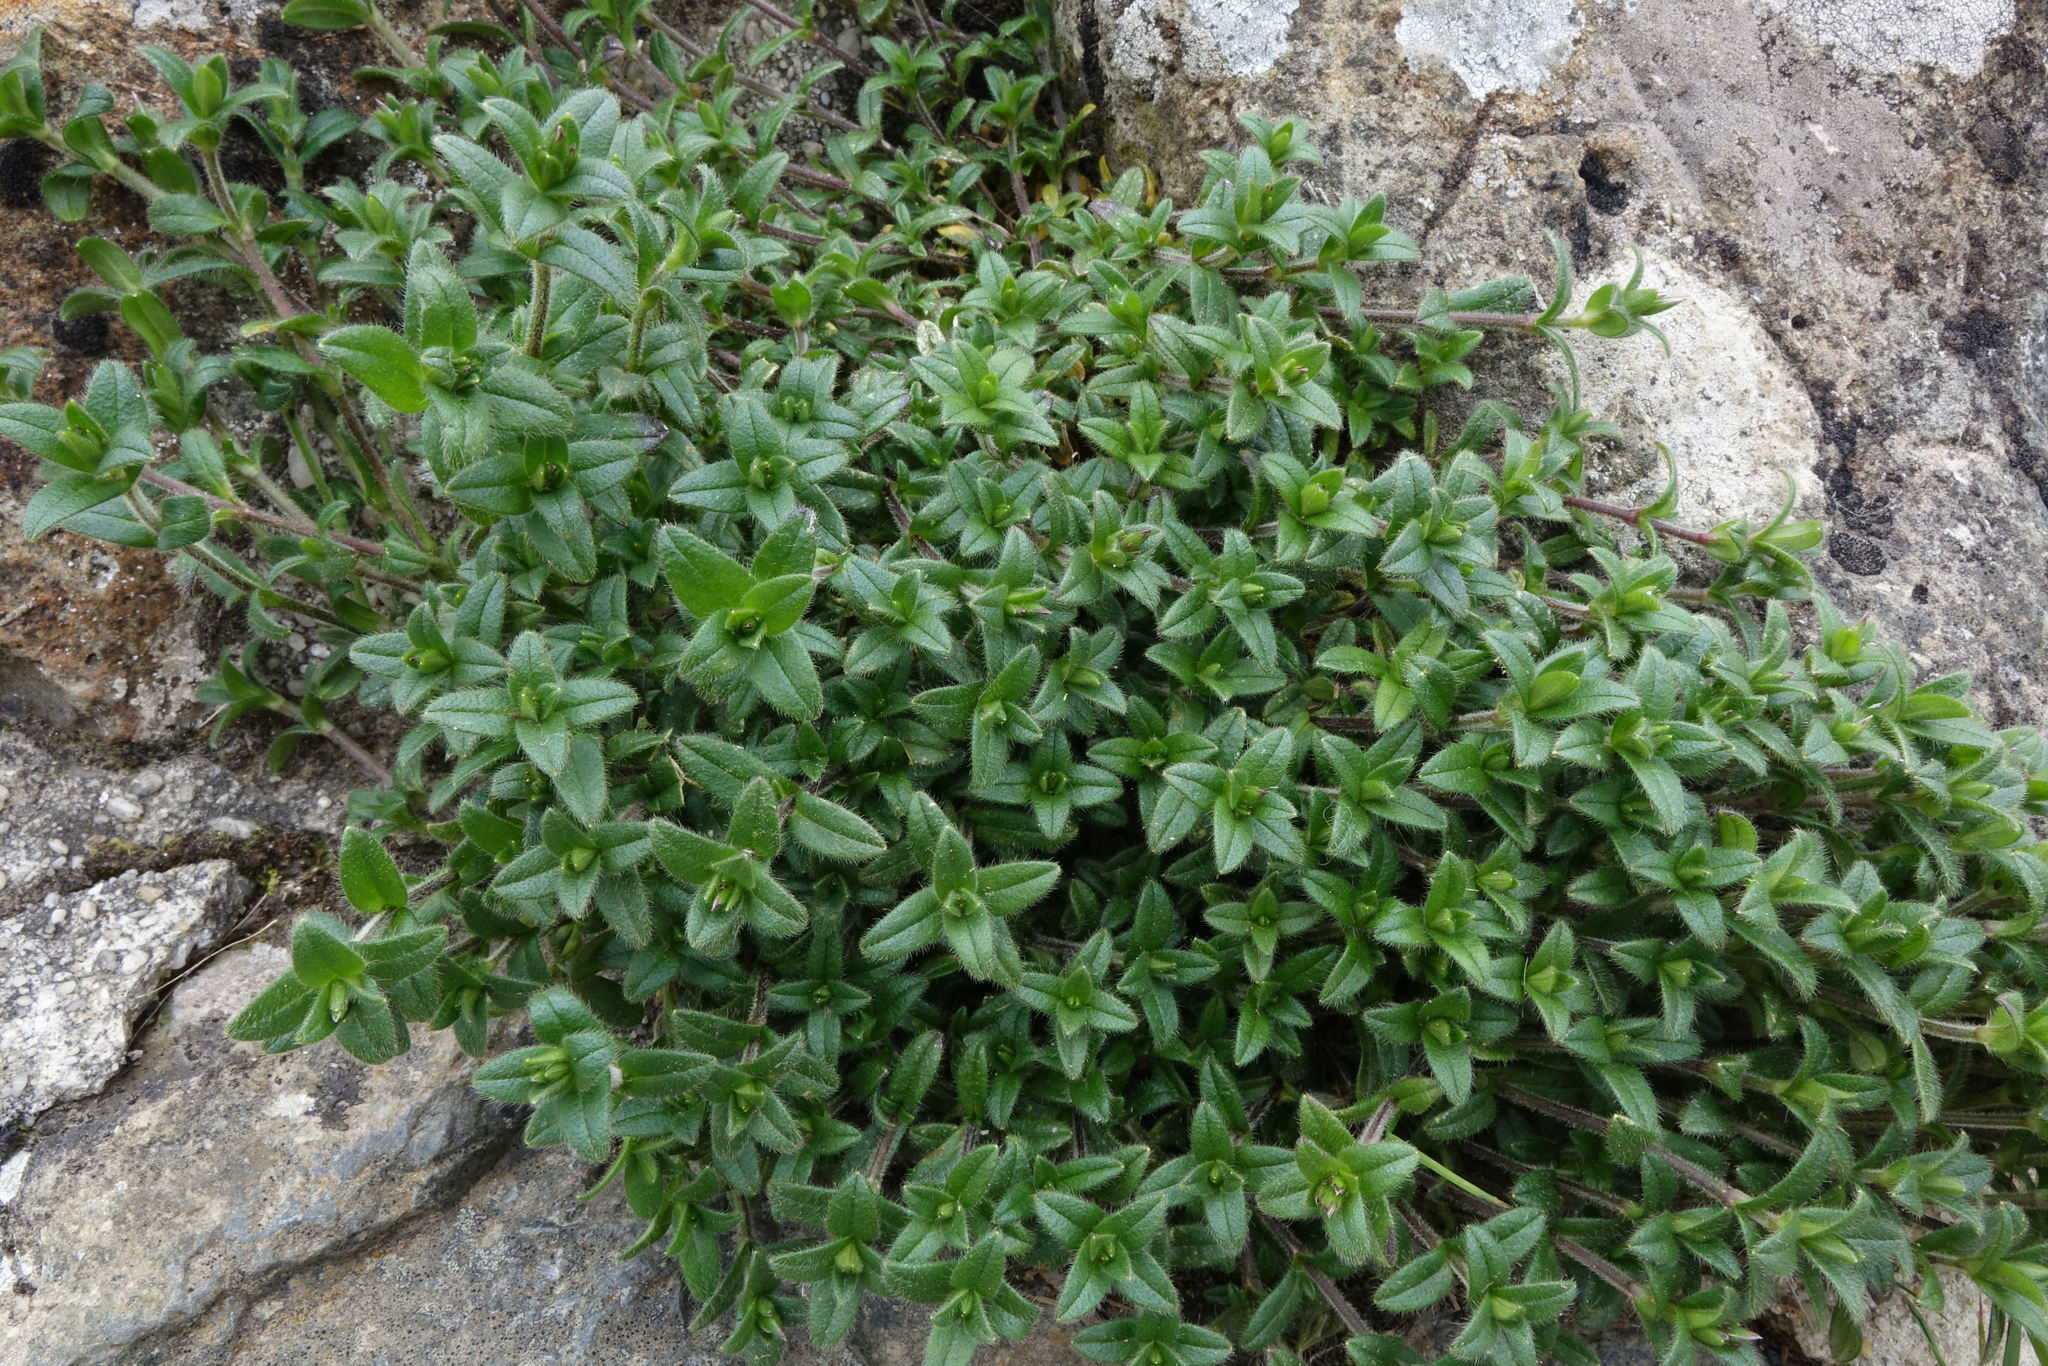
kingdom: Plantae
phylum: Tracheophyta
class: Magnoliopsida
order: Caryophyllales
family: Caryophyllaceae
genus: Cerastium
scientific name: Cerastium fontanum
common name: Common mouse-ear
